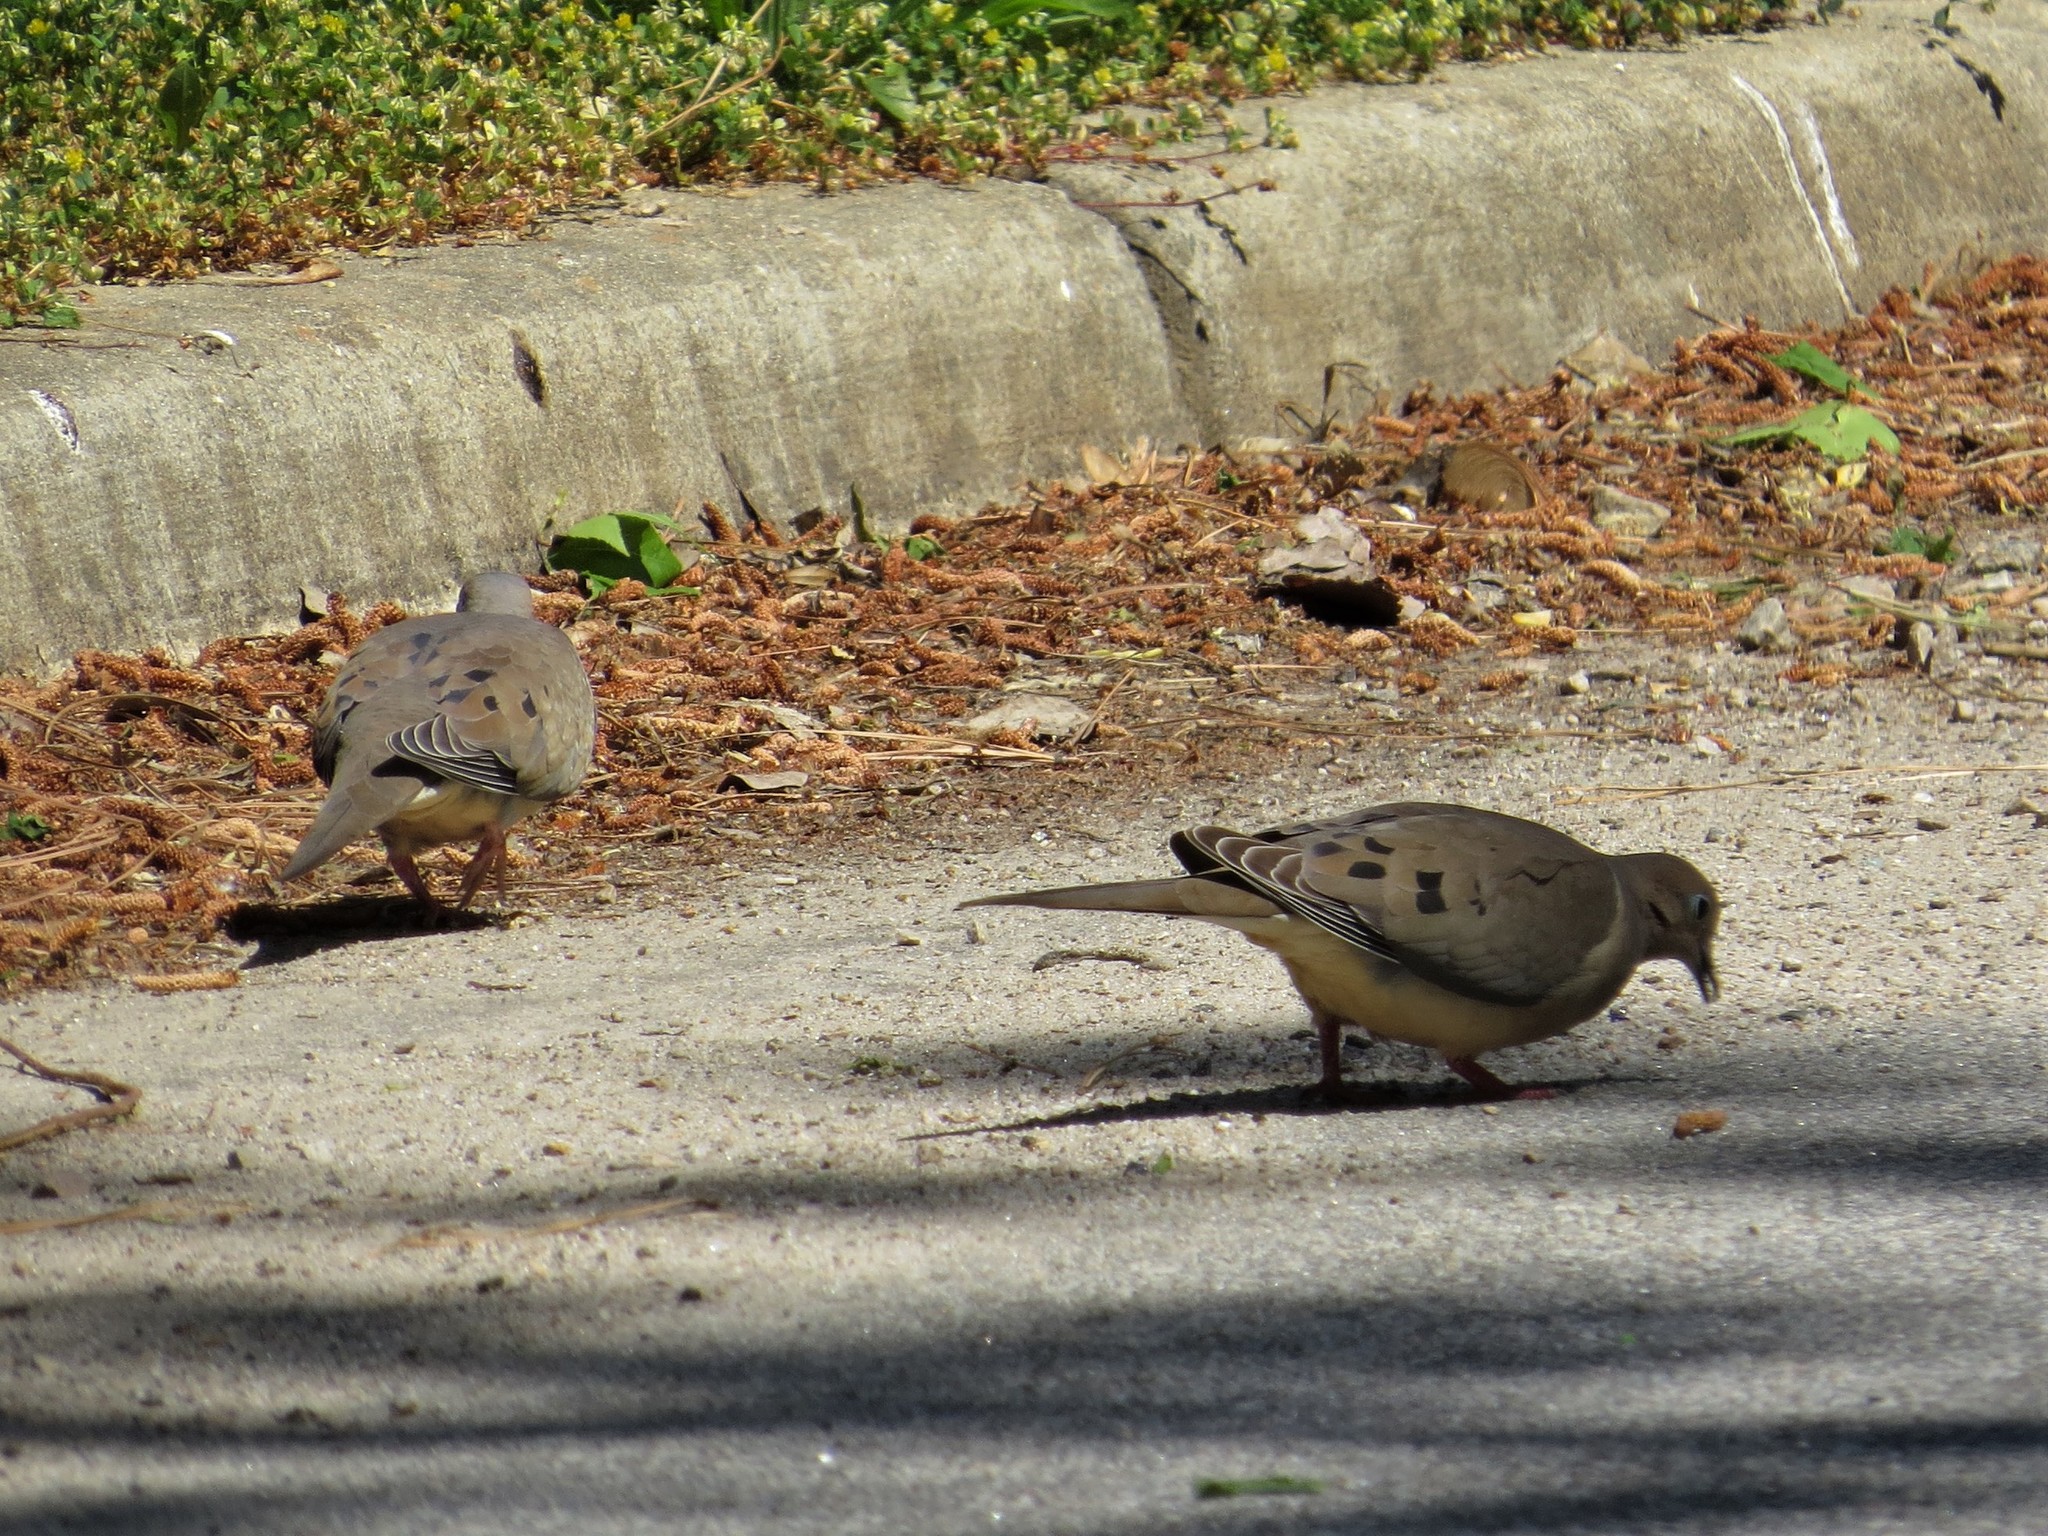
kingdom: Animalia
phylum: Chordata
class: Aves
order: Columbiformes
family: Columbidae
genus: Zenaida
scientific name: Zenaida macroura
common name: Mourning dove
